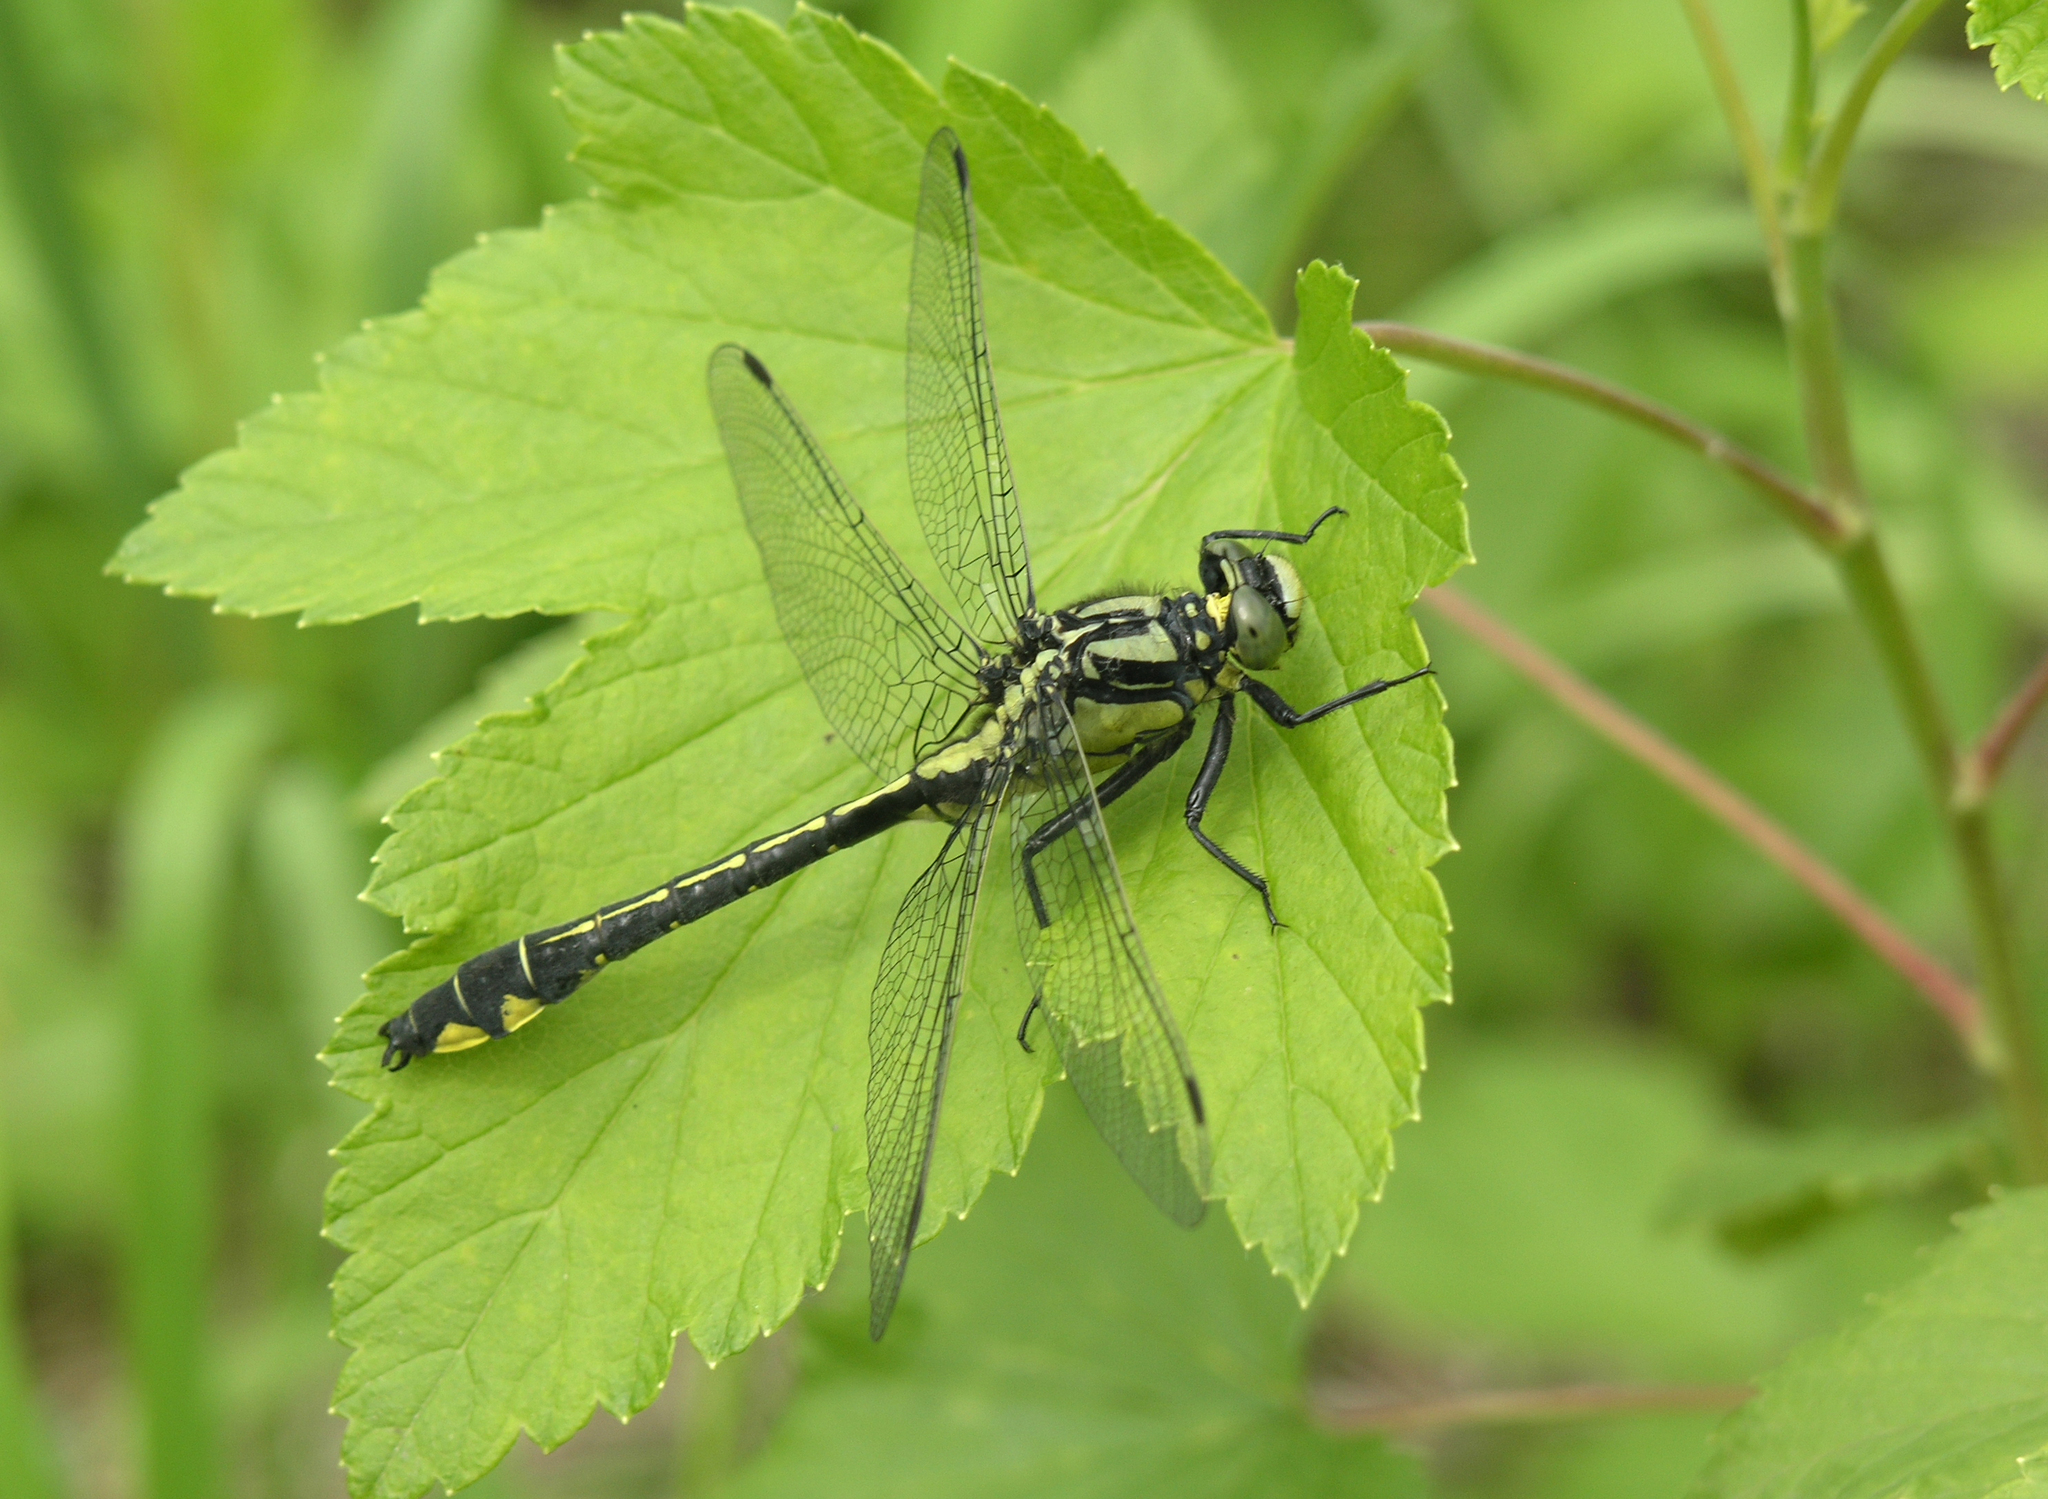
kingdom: Animalia
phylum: Arthropoda
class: Insecta
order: Odonata
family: Gomphidae
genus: Gomphus
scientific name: Gomphus vulgatissimus
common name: Club-tailed dragonfly
